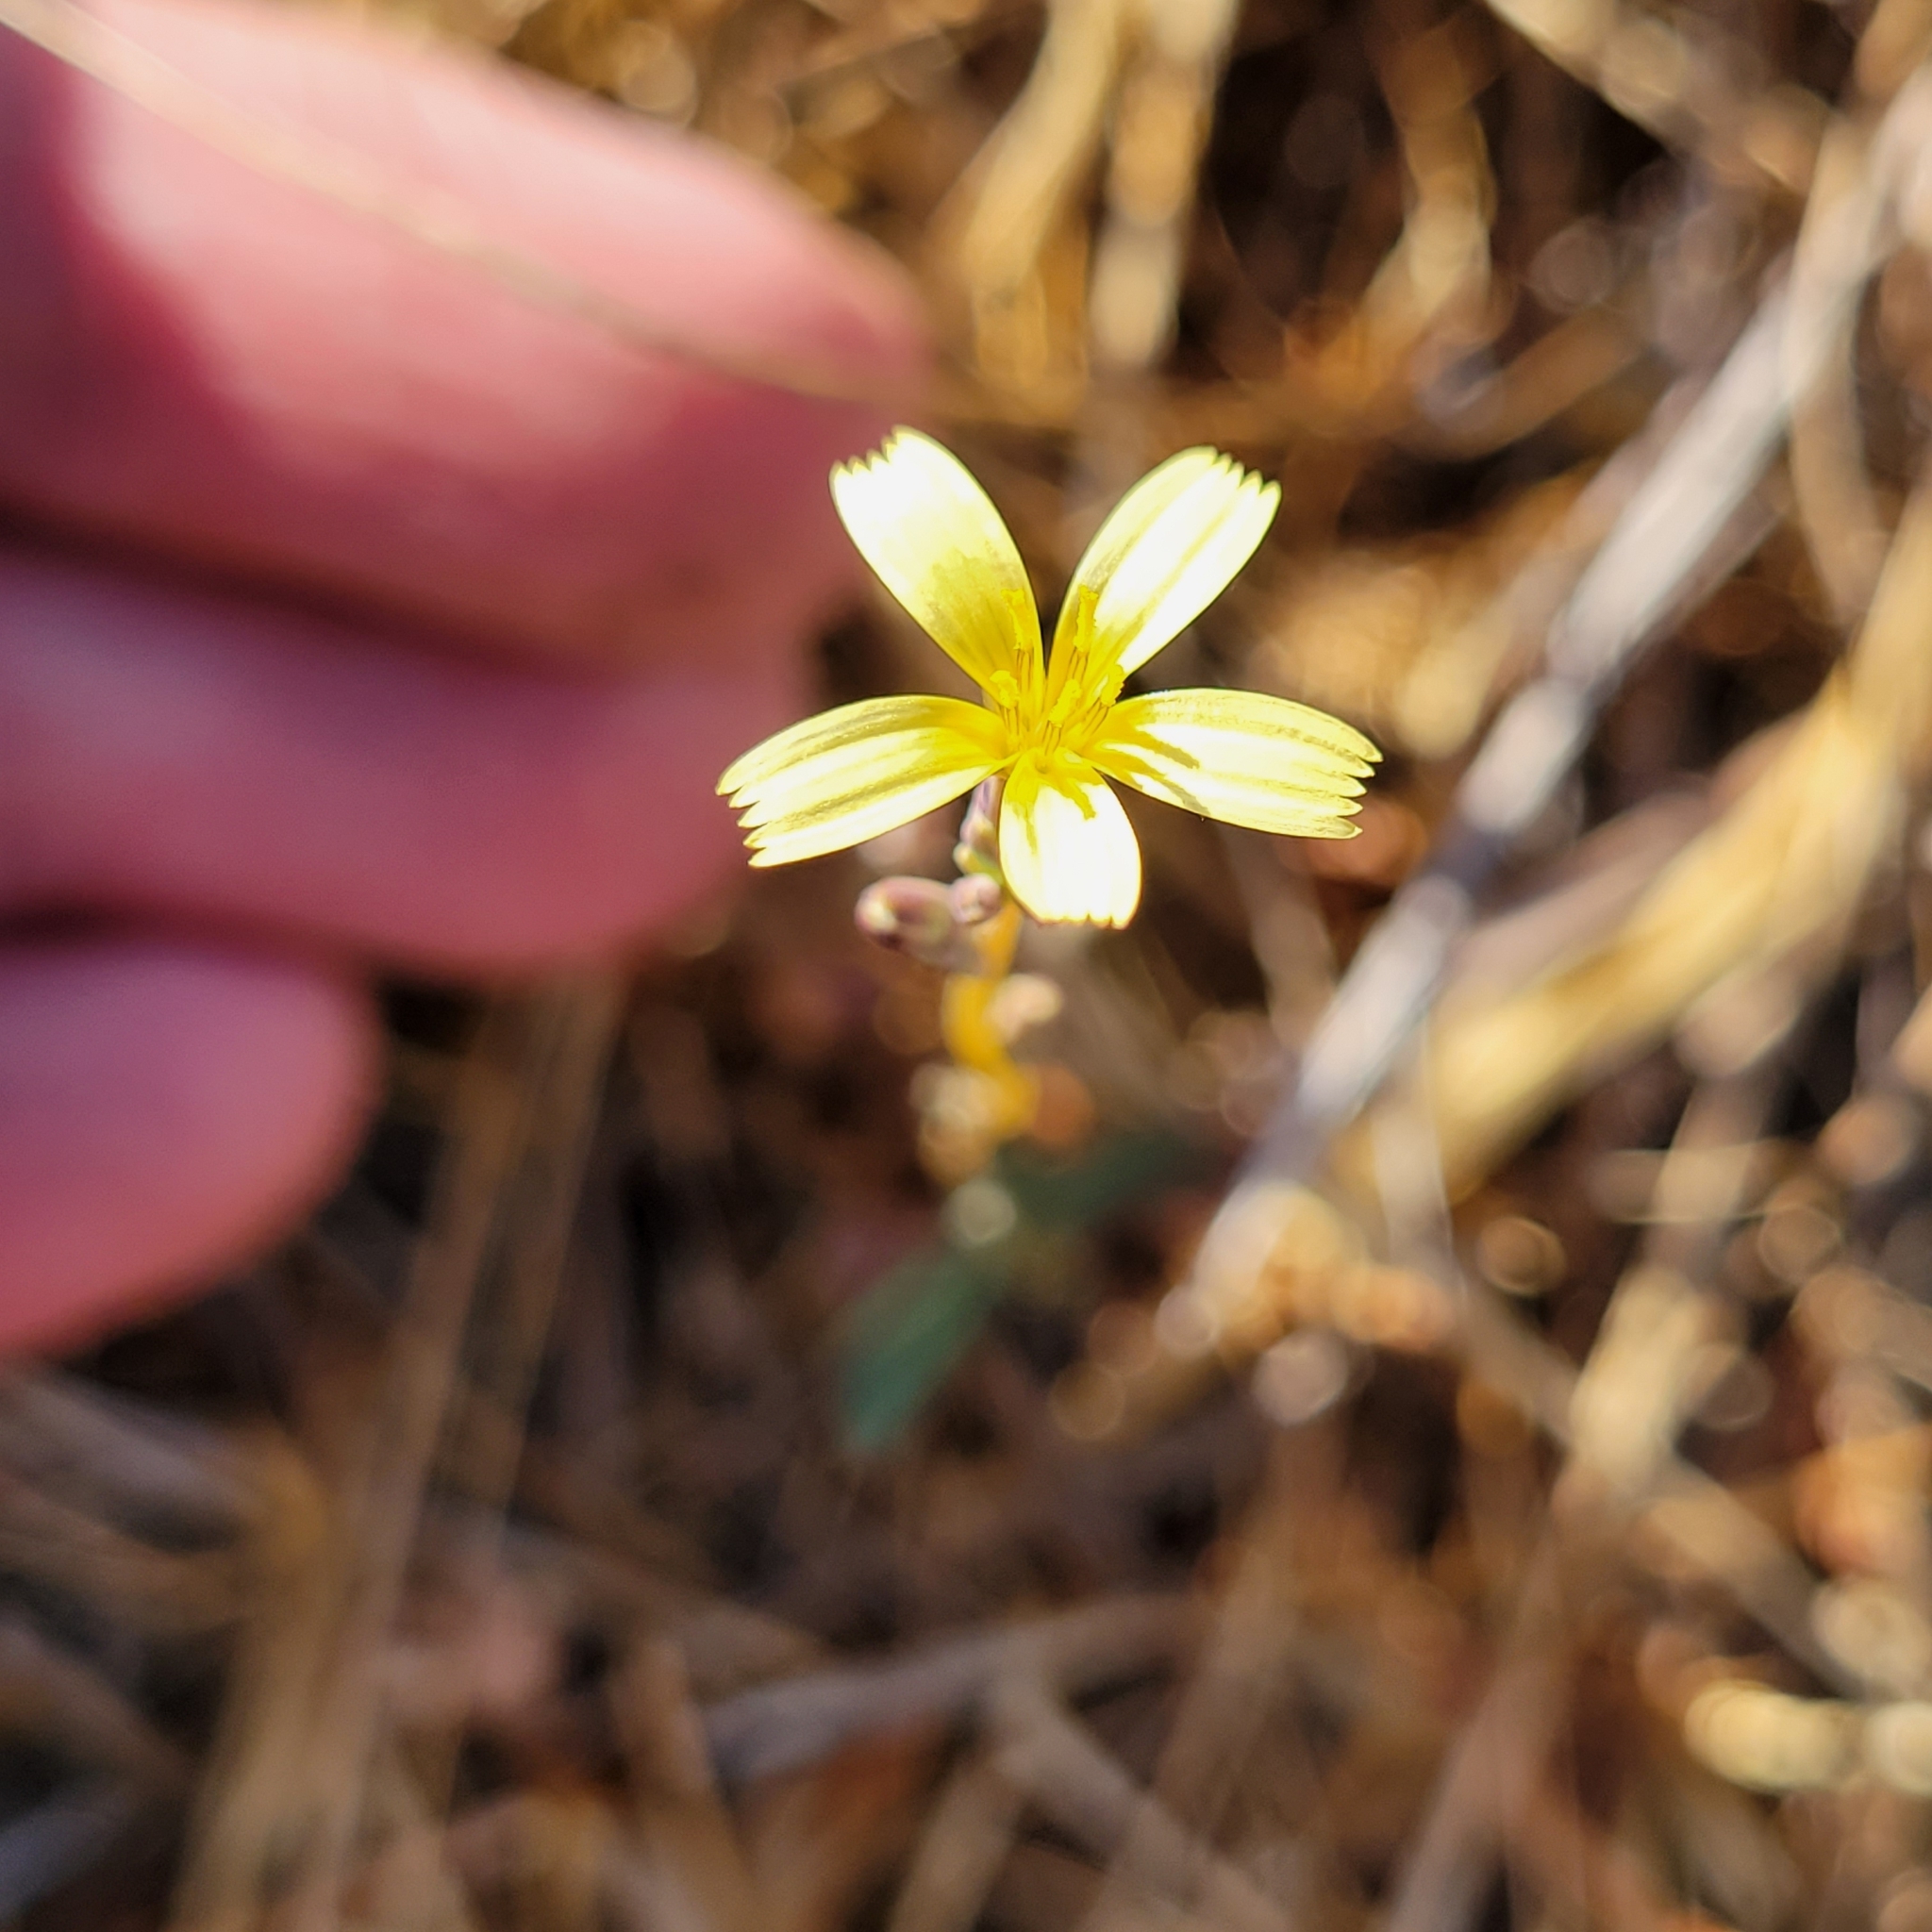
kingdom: Plantae
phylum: Tracheophyta
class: Magnoliopsida
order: Asterales
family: Asteraceae
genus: Lactuca
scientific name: Lactuca saligna
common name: Wild lettuce
